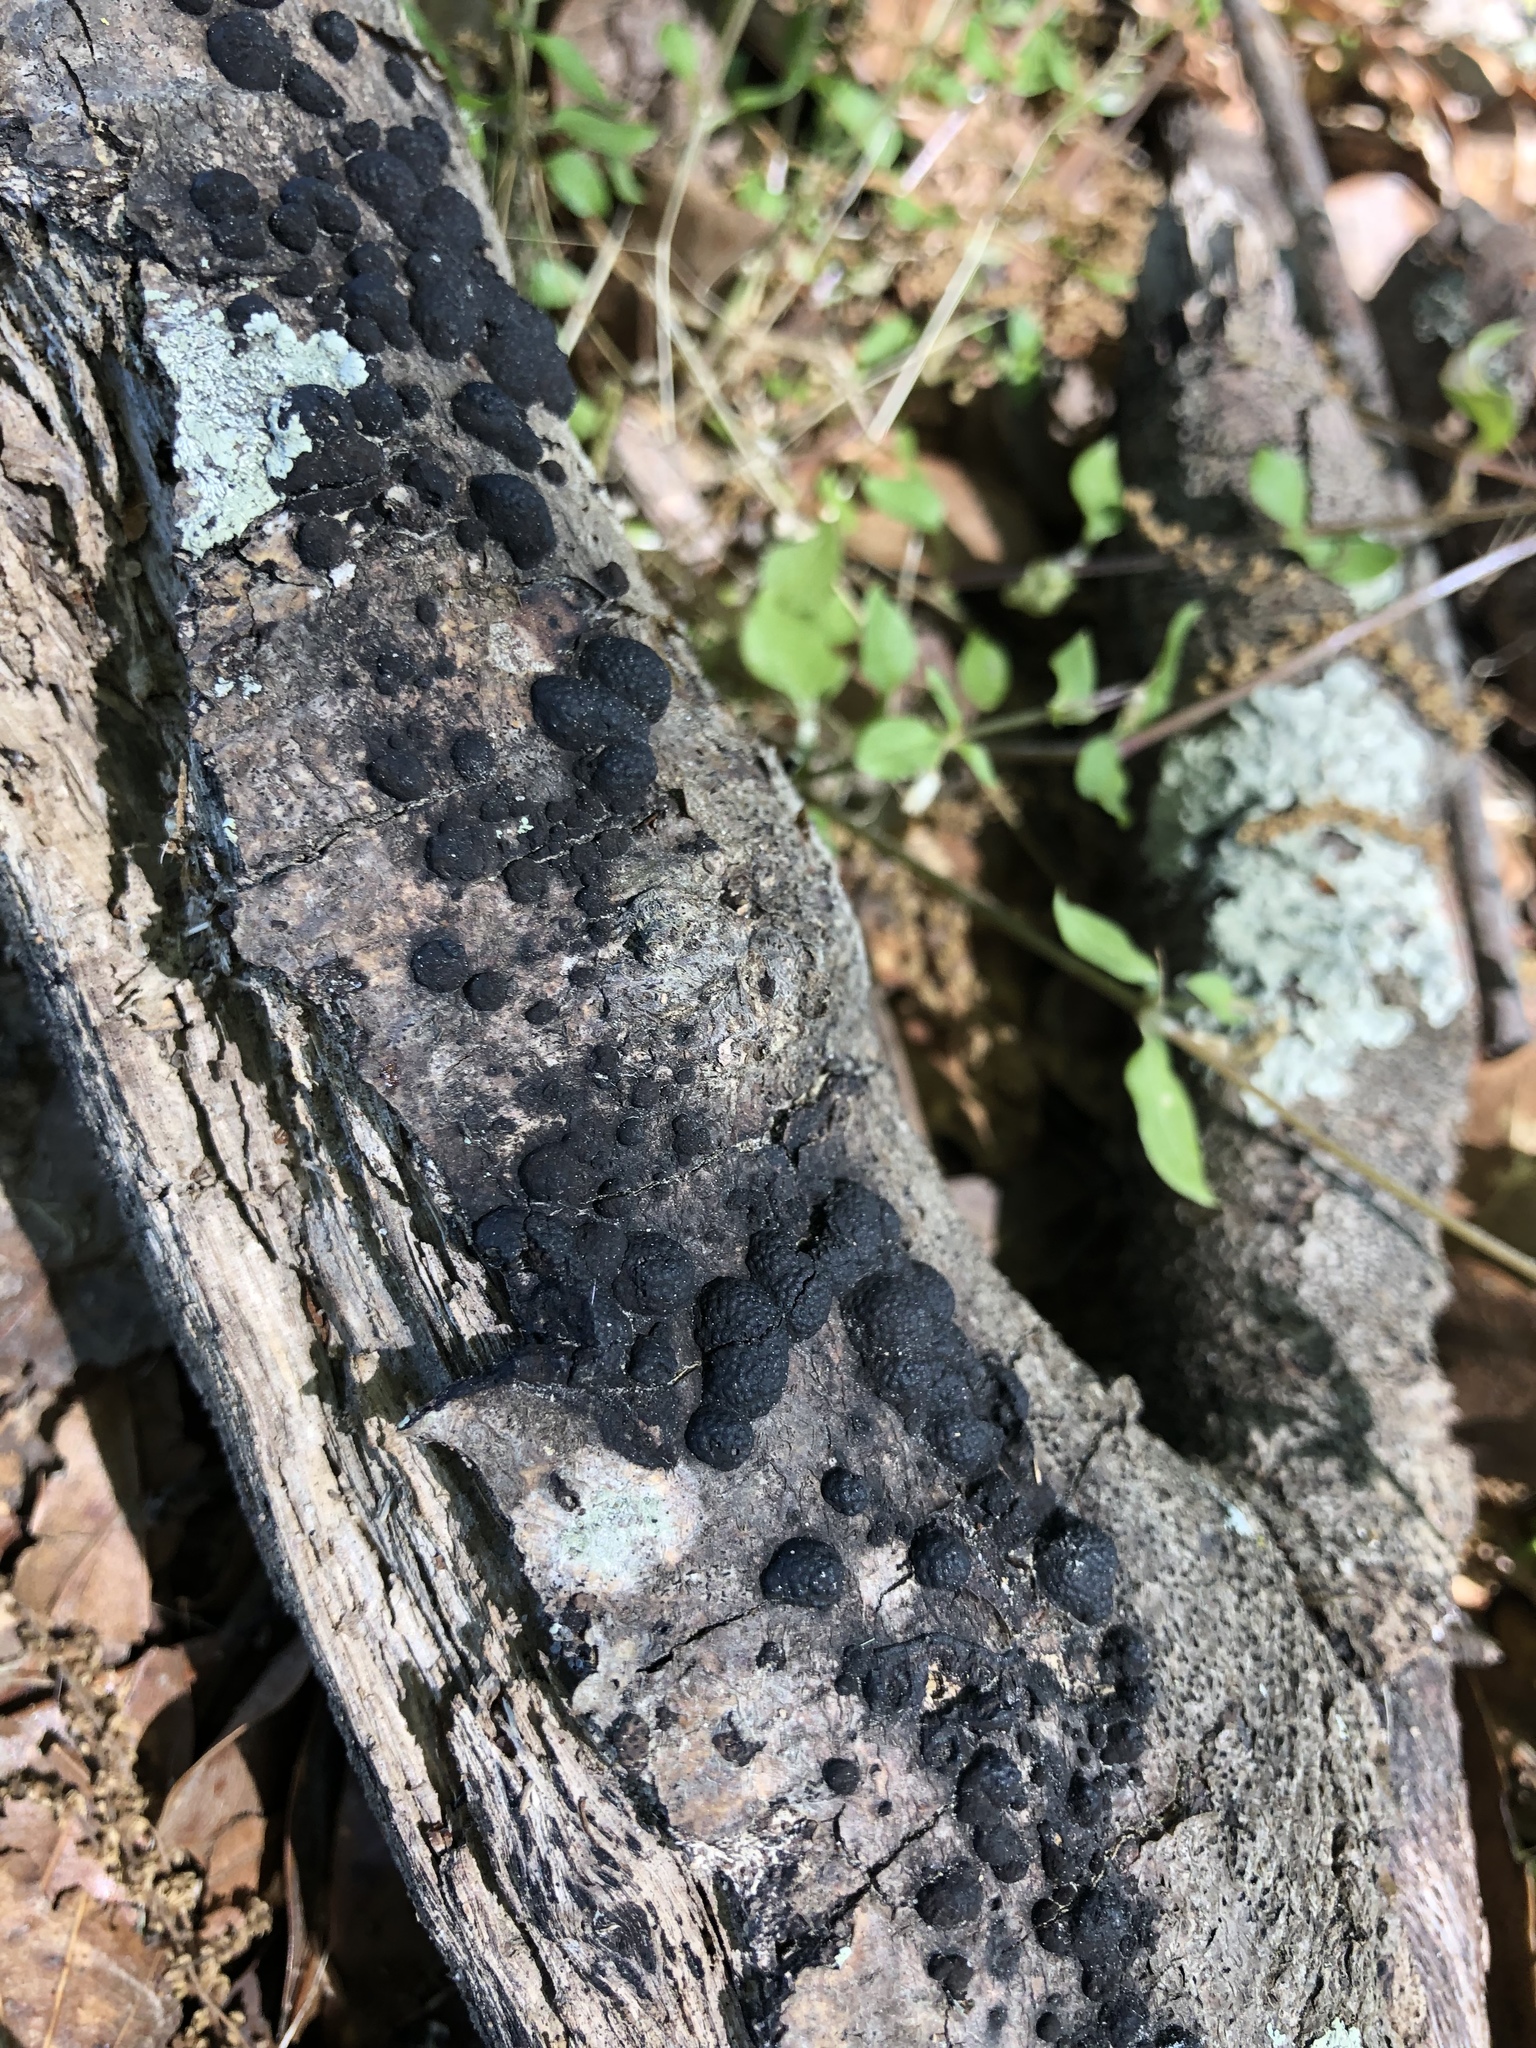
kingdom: Fungi
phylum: Ascomycota
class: Sordariomycetes
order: Xylariales
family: Hypoxylaceae
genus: Annulohypoxylon
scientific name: Annulohypoxylon thouarsianum
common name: Cramp balls
